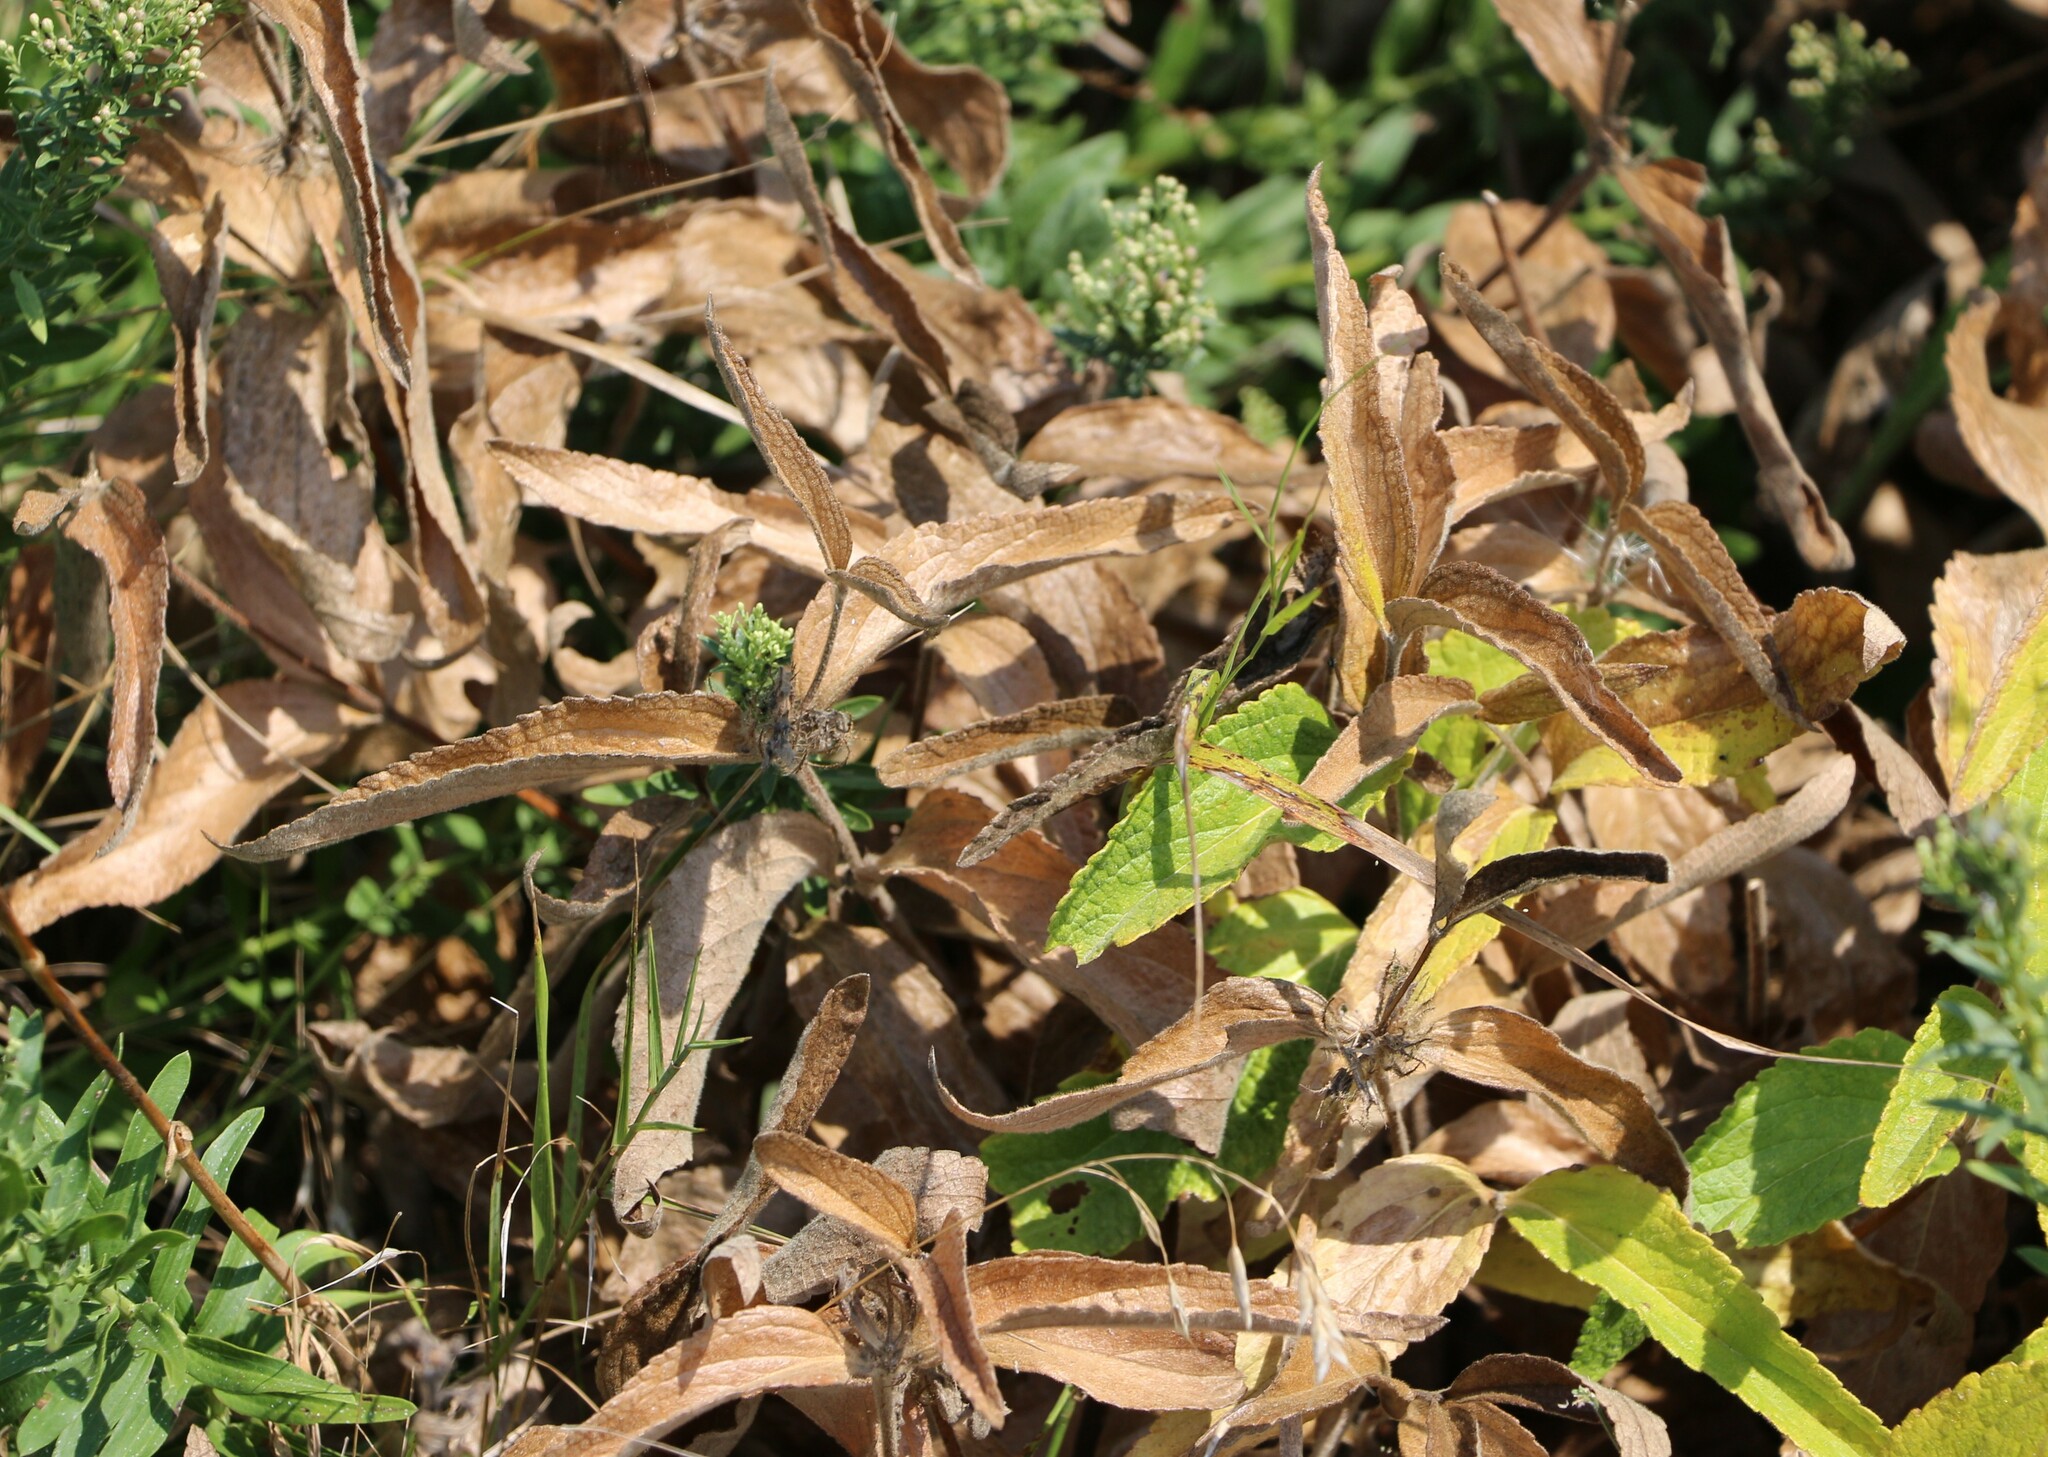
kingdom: Plantae
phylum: Tracheophyta
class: Magnoliopsida
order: Lamiales
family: Lamiaceae
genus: Phlomis
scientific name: Phlomis herba-venti
